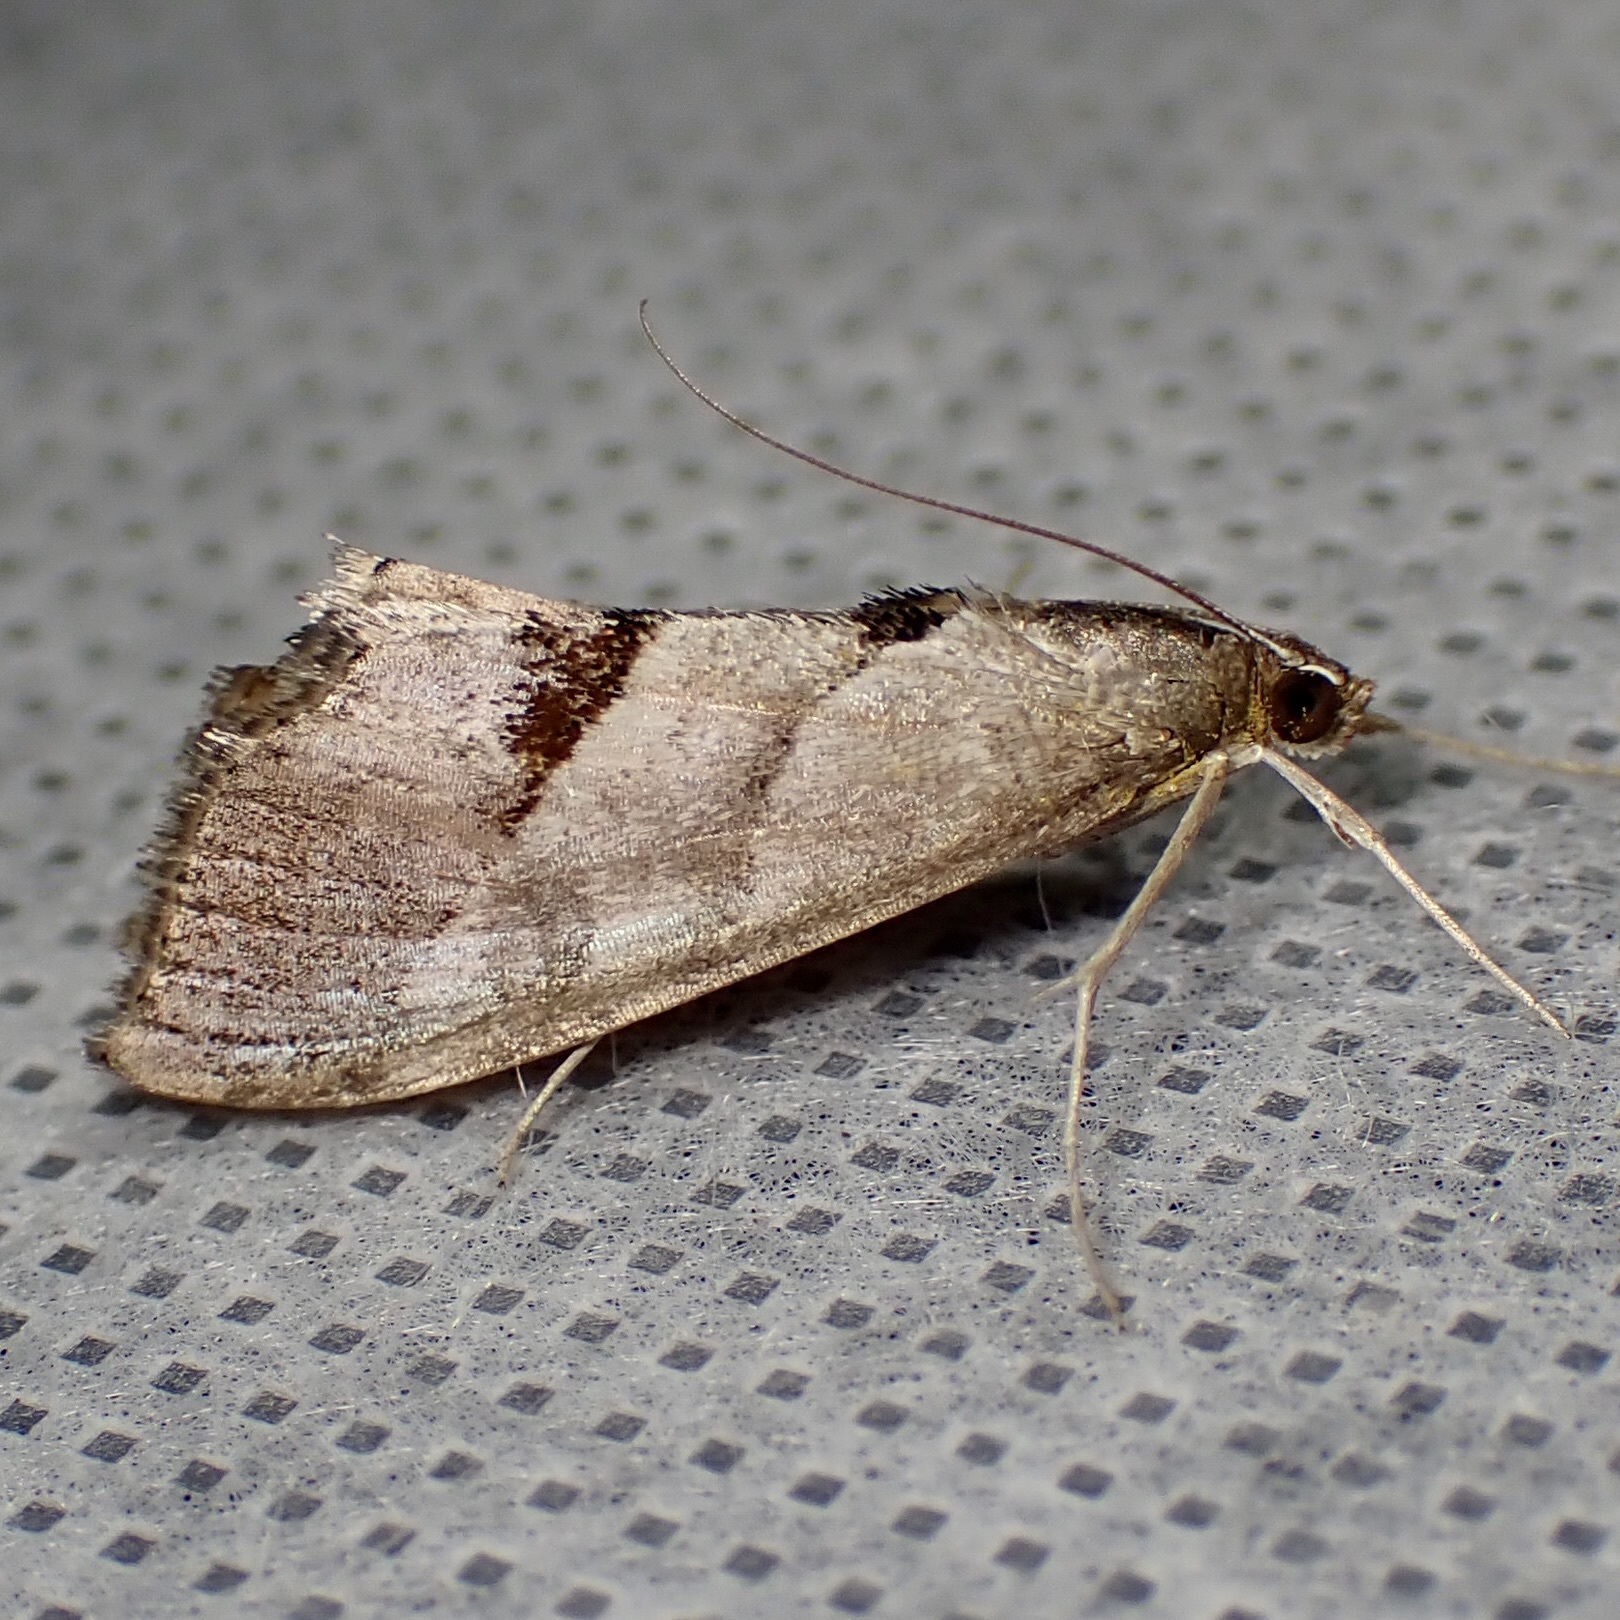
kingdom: Animalia
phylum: Arthropoda
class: Insecta
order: Lepidoptera
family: Crambidae
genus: Evergestis
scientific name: Evergestis triangulalis
